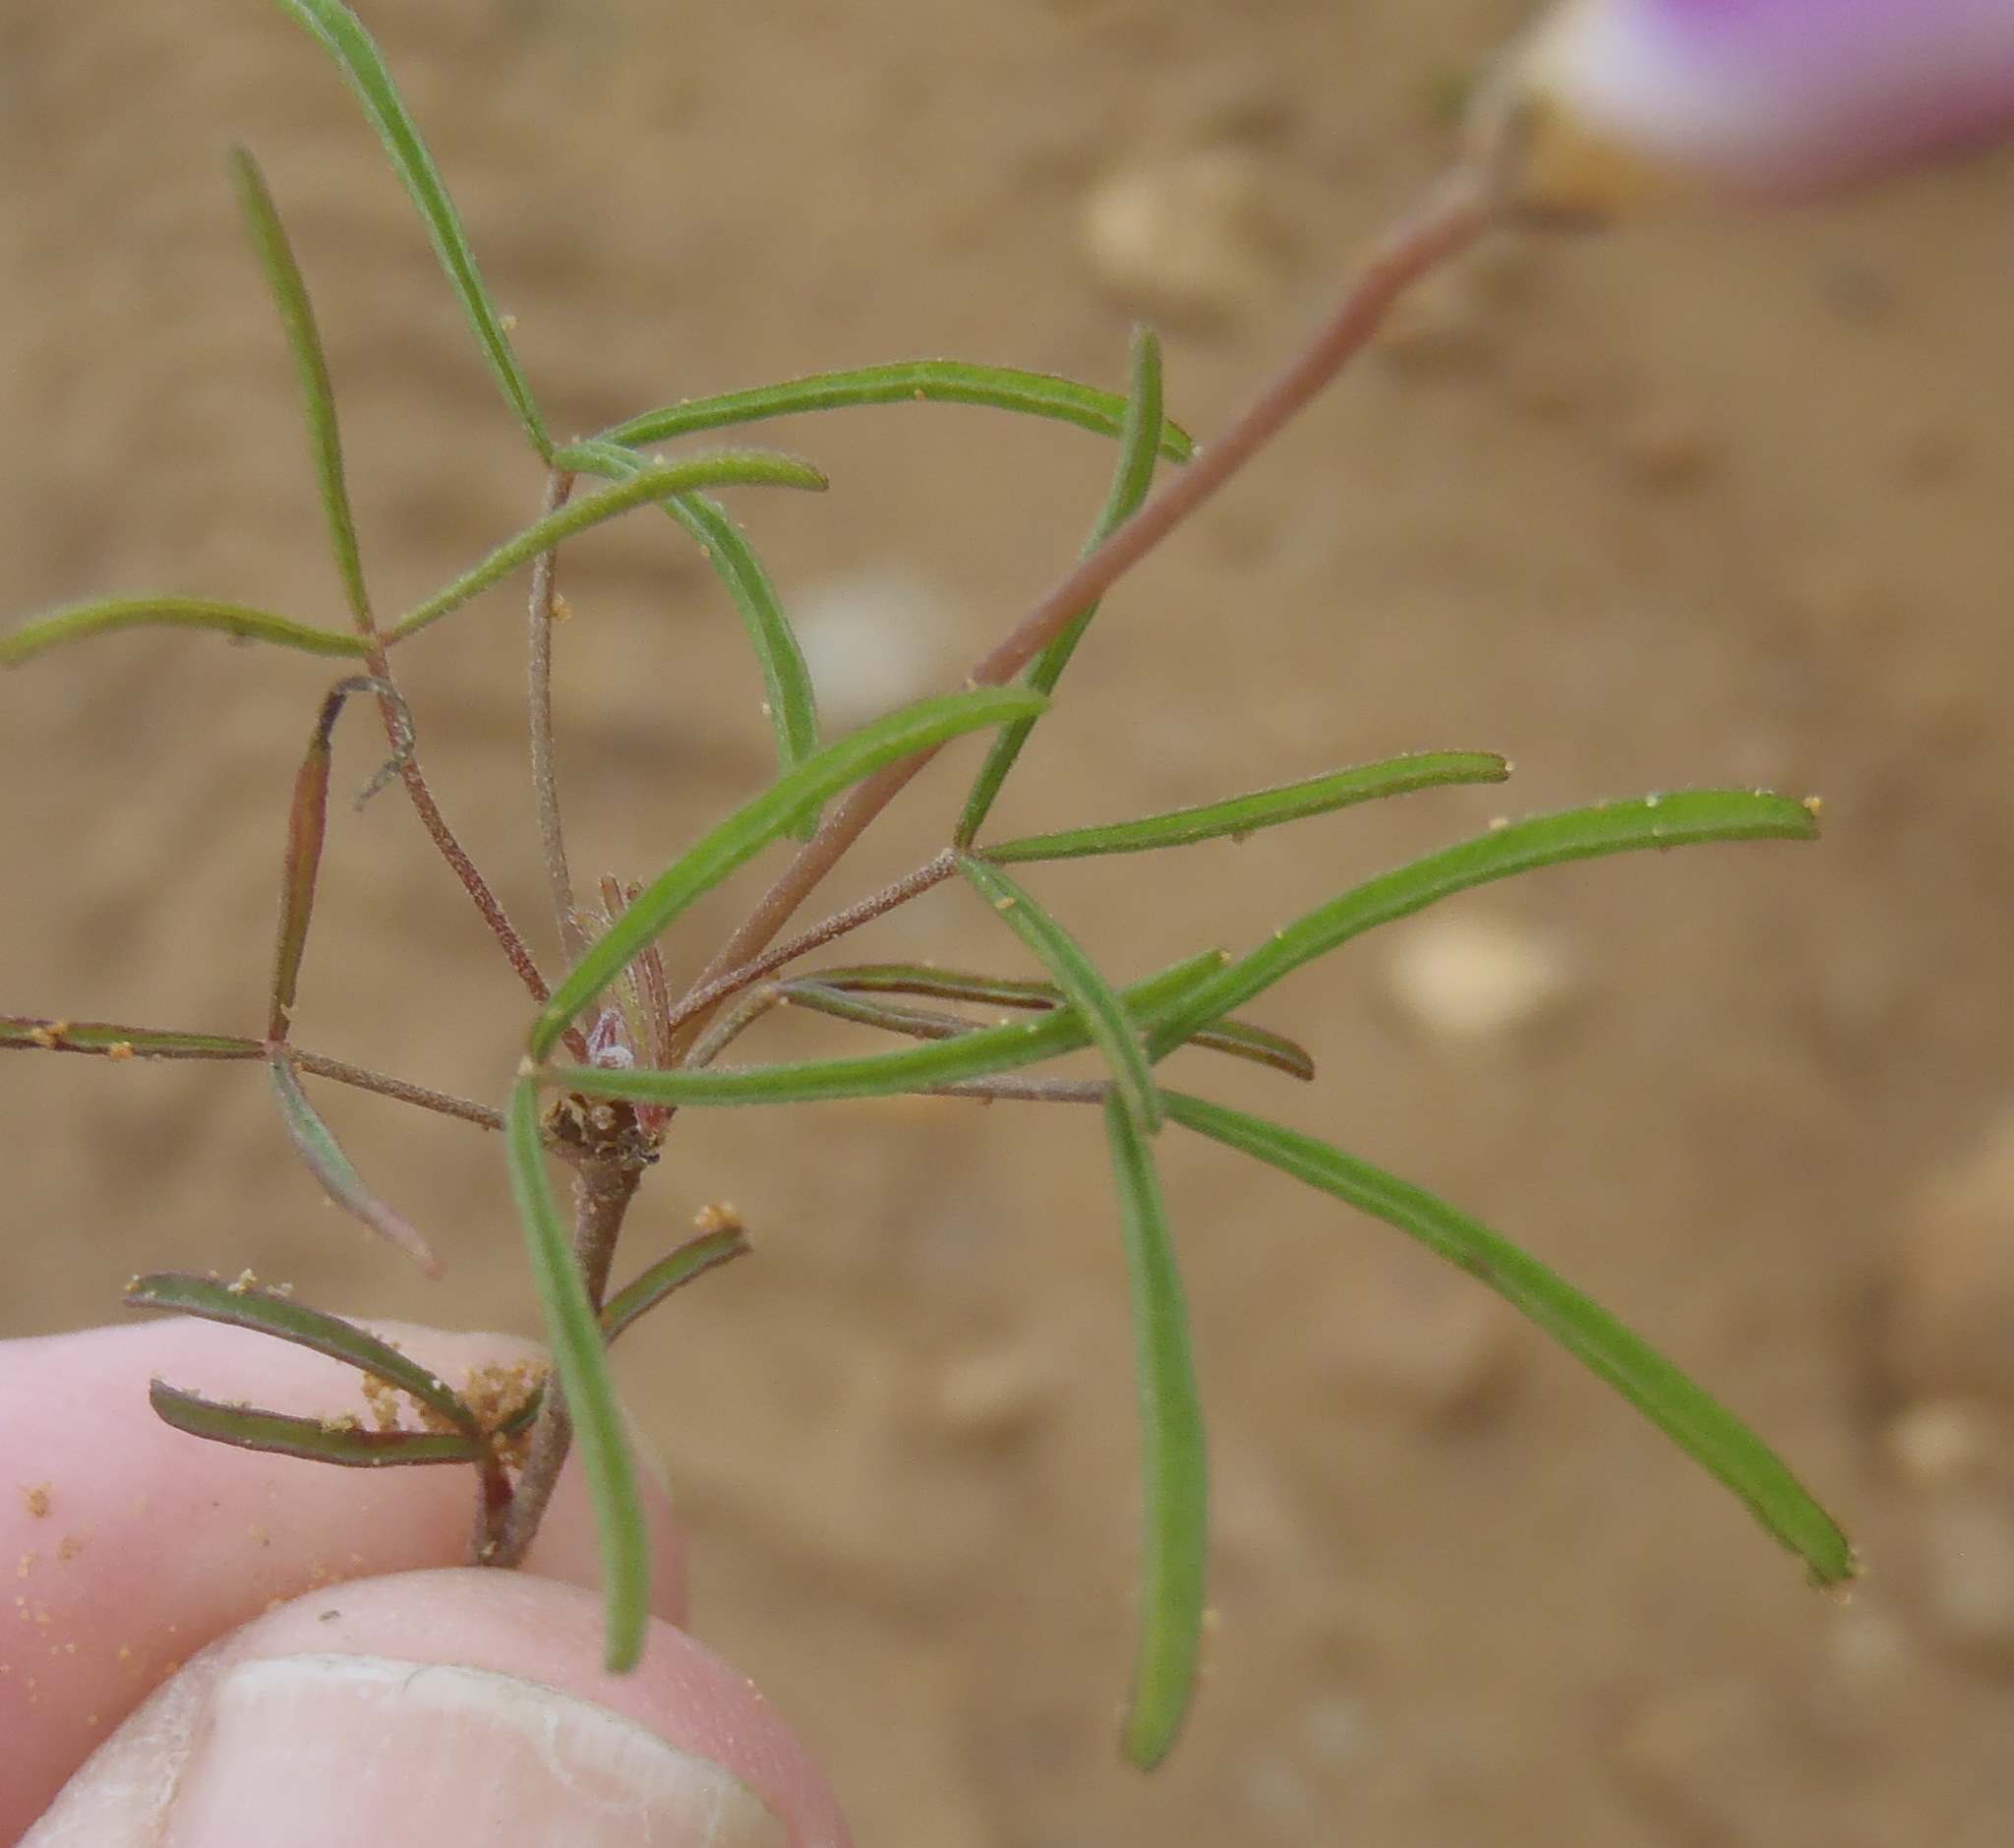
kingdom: Plantae
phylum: Tracheophyta
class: Magnoliopsida
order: Oxalidales
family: Oxalidaceae
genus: Oxalis
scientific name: Oxalis polyphylla
